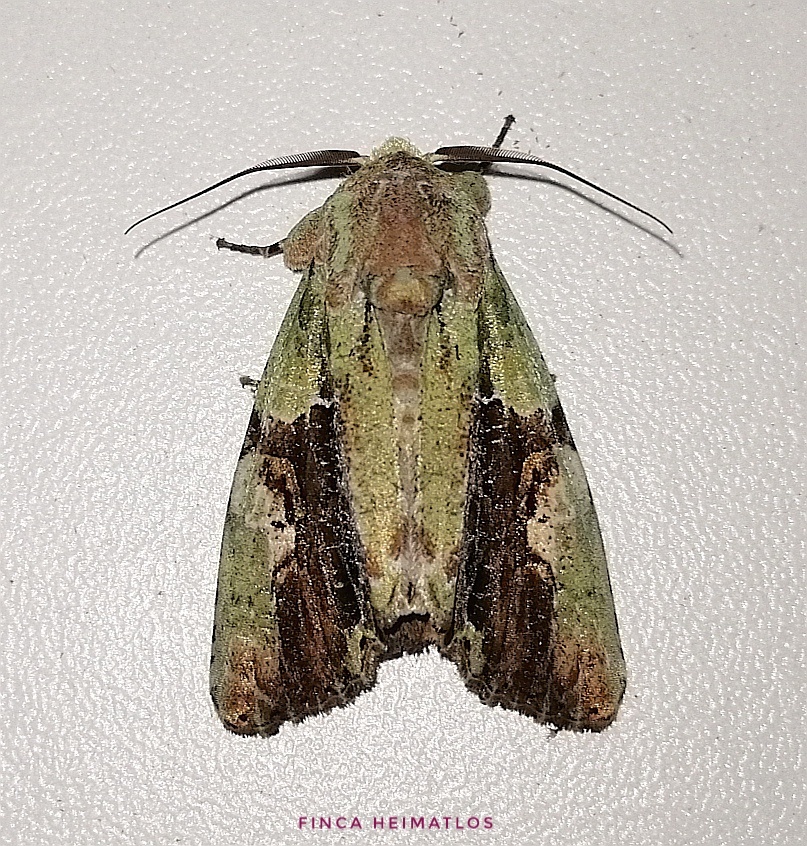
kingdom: Animalia
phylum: Arthropoda
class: Insecta
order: Lepidoptera
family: Noctuidae
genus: Stauropides
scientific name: Stauropides superba
